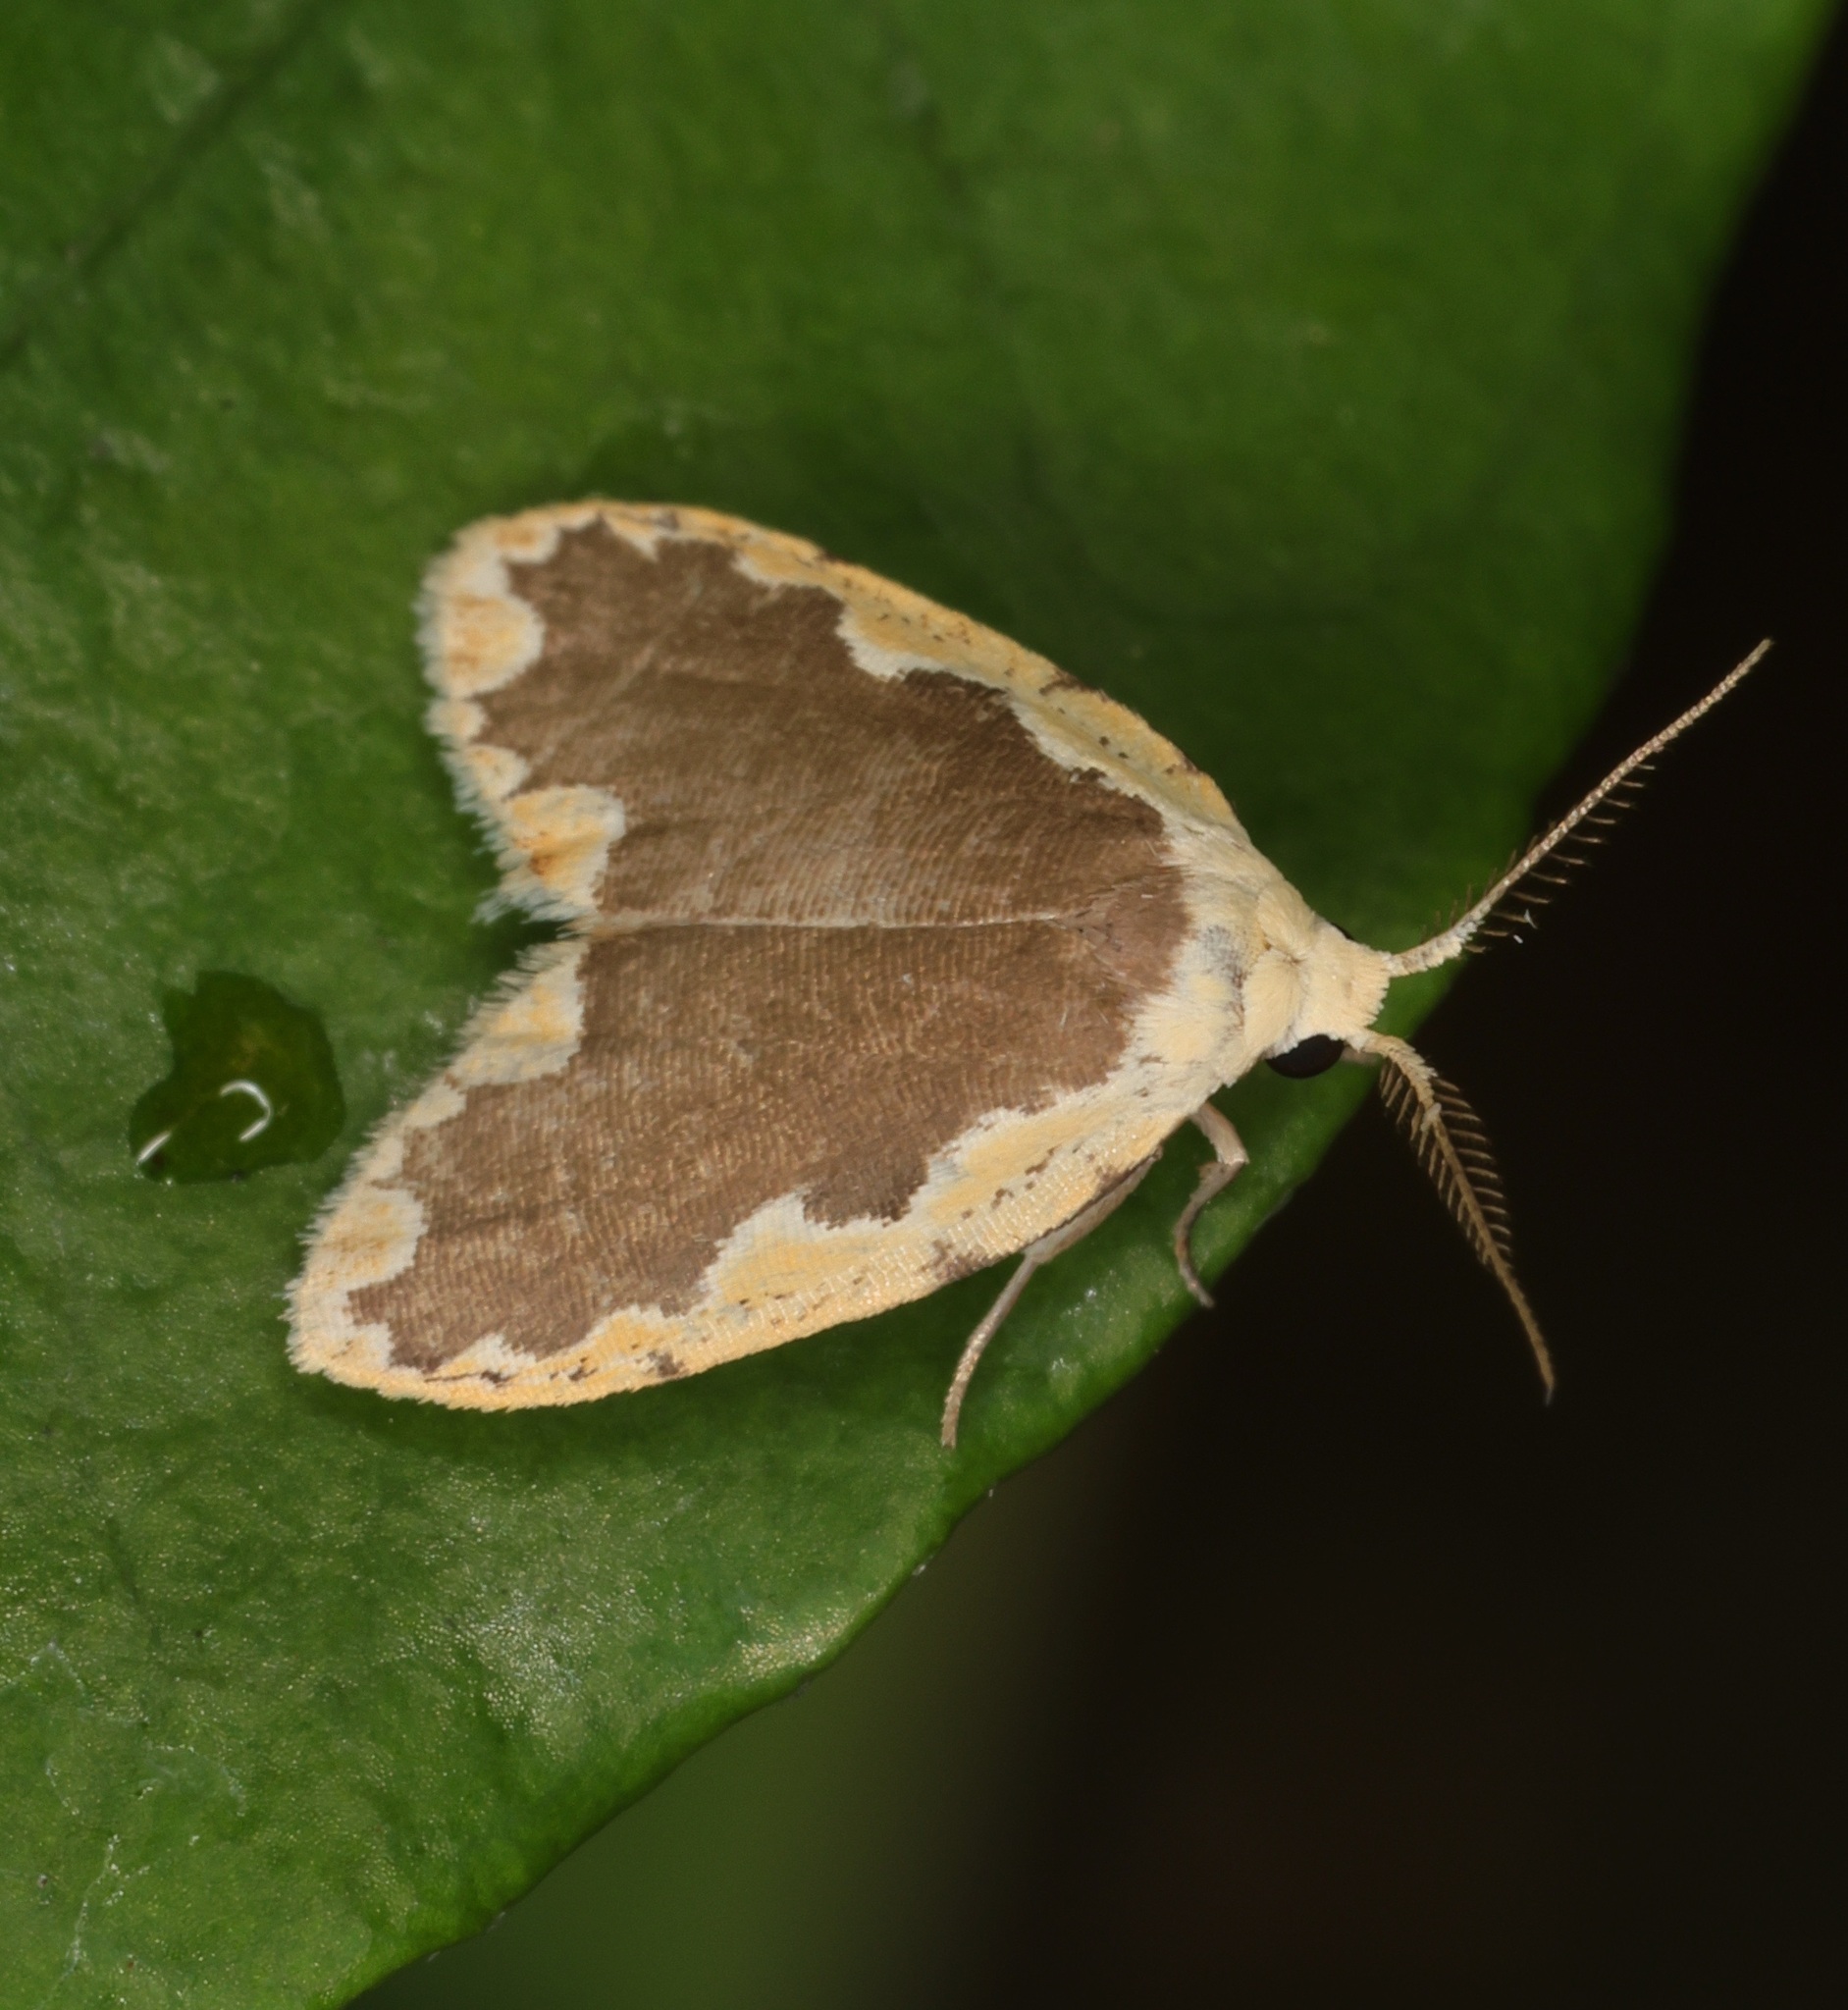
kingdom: Animalia
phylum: Arthropoda
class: Insecta
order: Lepidoptera
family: Erebidae
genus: Diduga
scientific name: Diduga flavicostata
